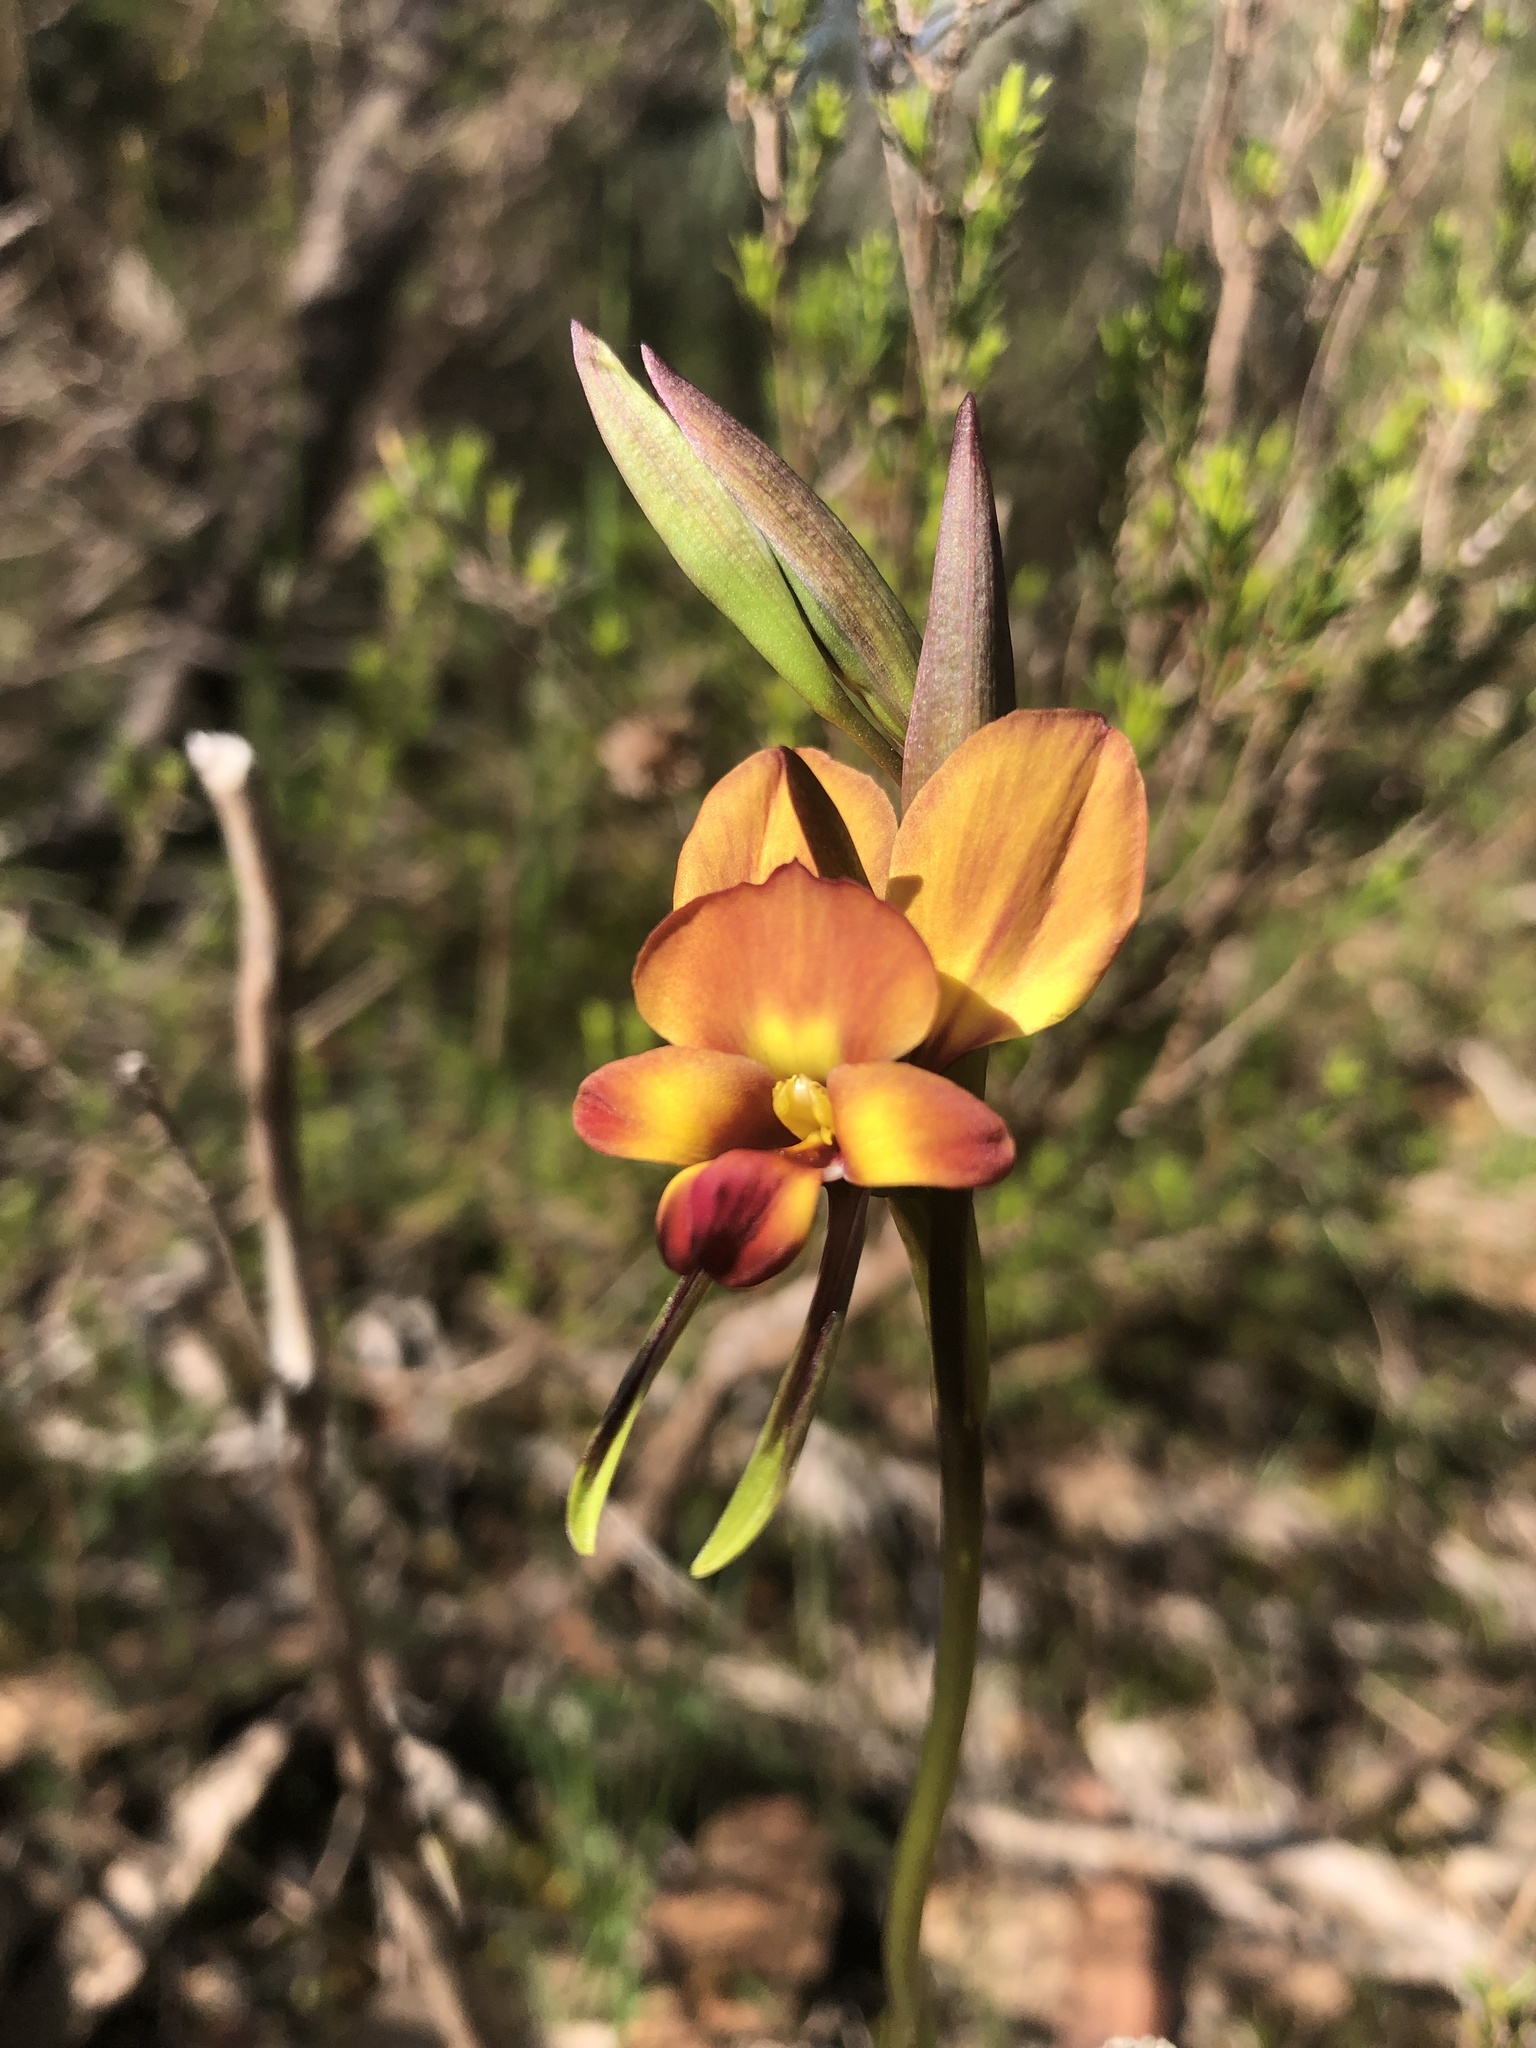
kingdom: Plantae
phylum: Tracheophyta
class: Liliopsida
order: Asparagales
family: Orchidaceae
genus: Diuris
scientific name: Diuris orientis
